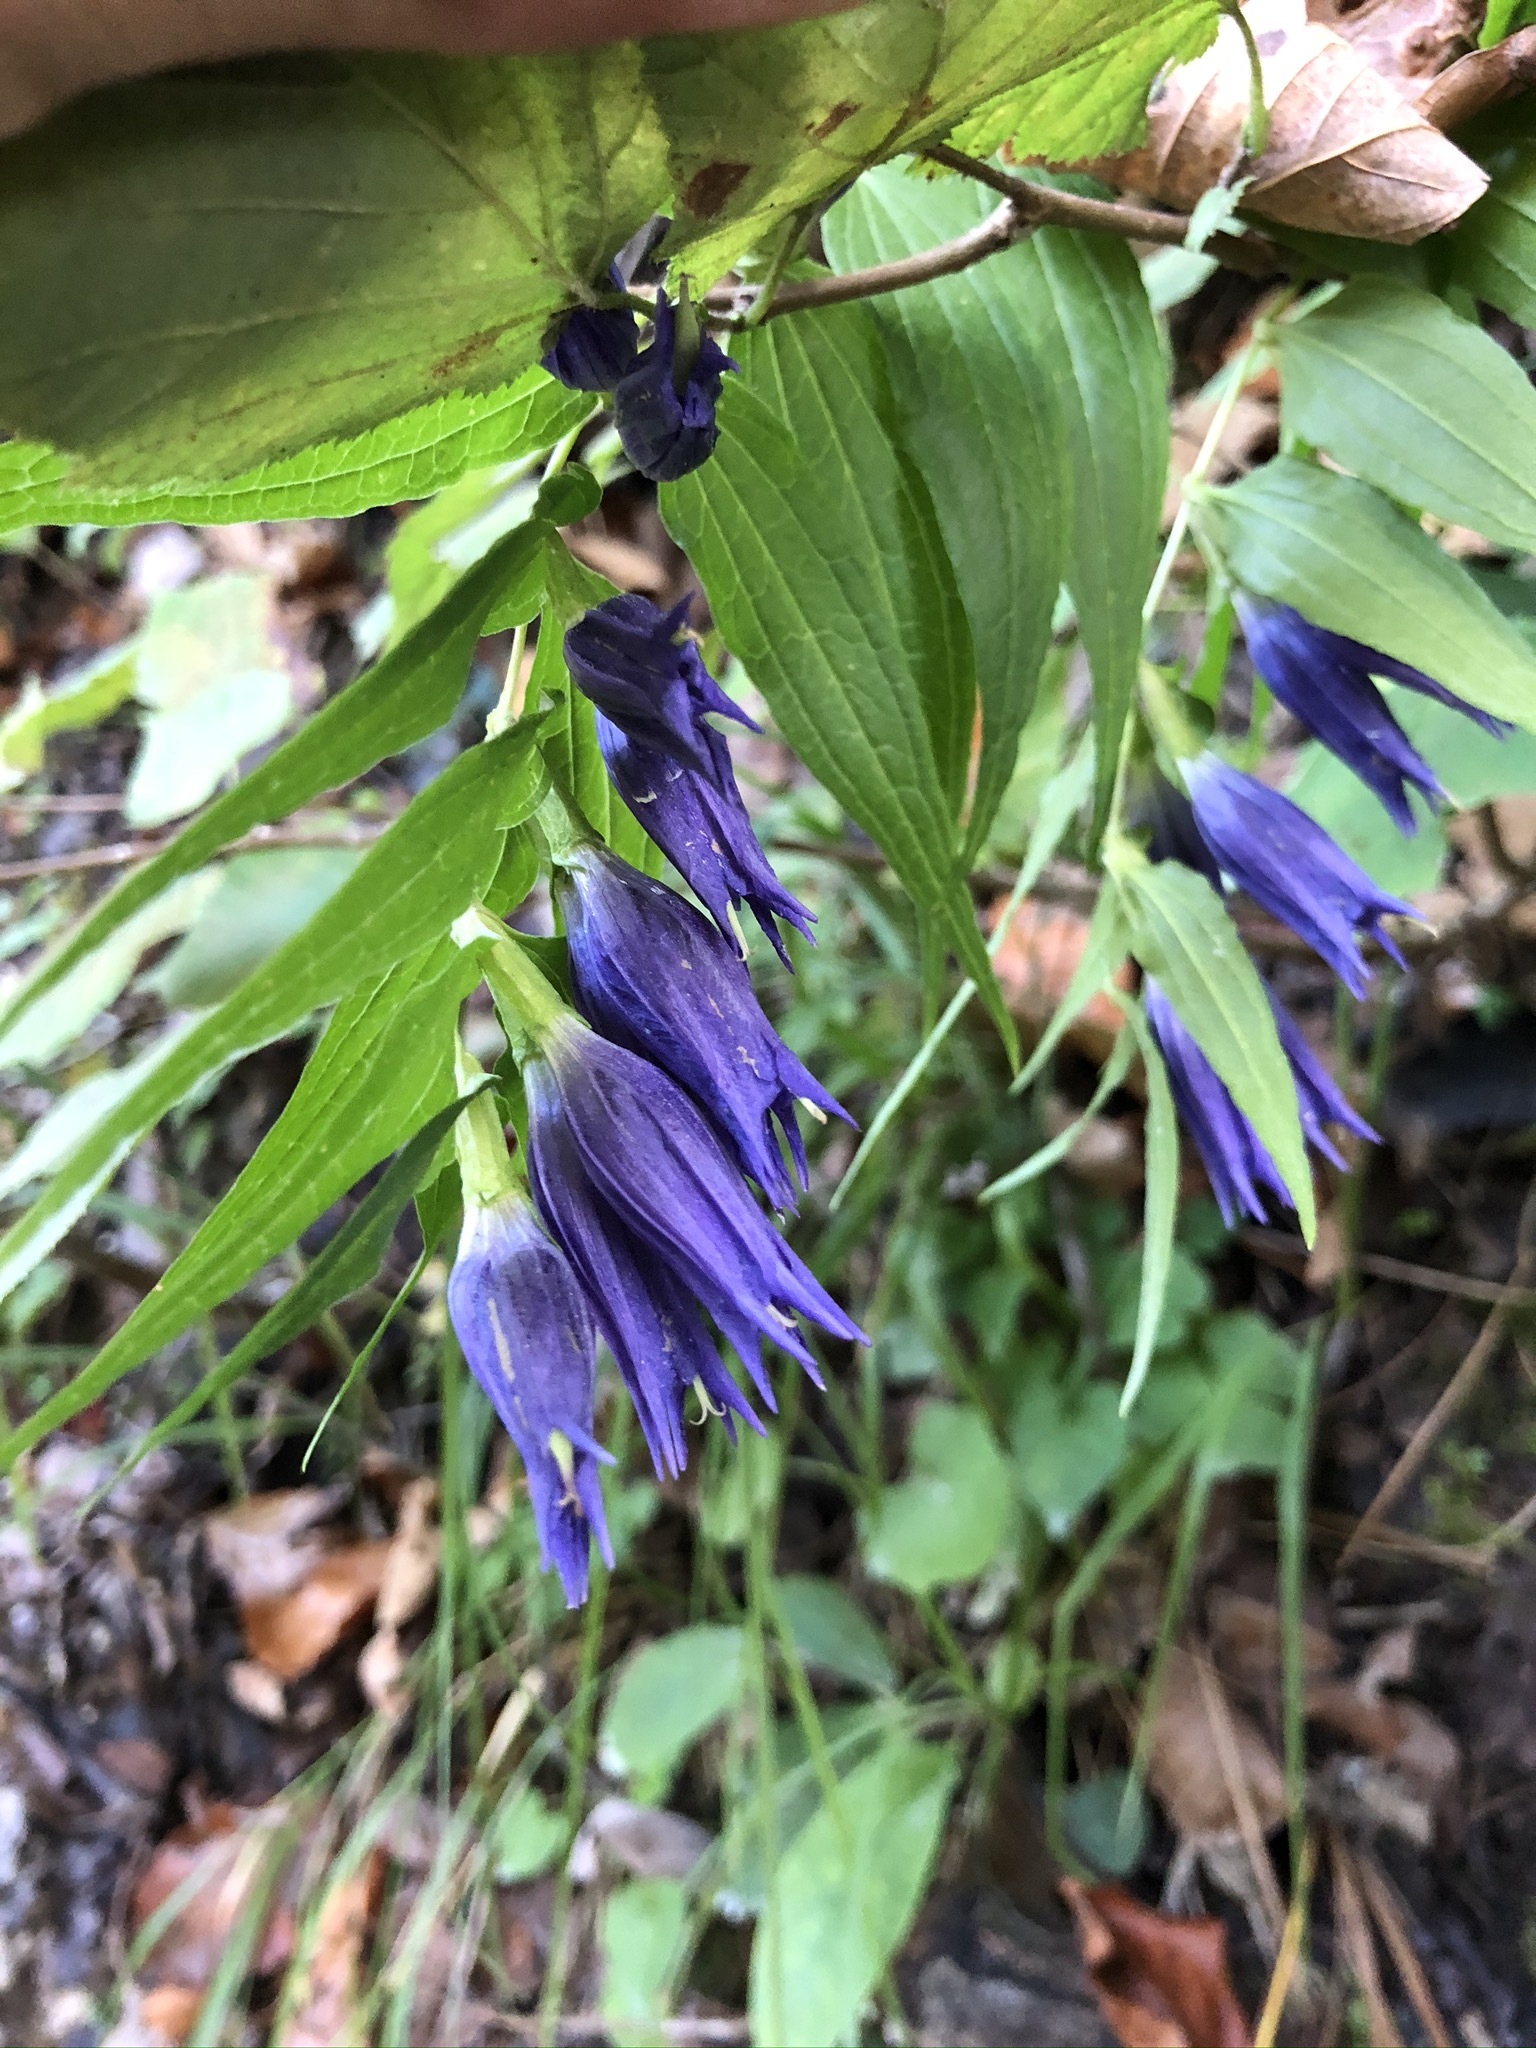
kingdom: Plantae
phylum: Tracheophyta
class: Magnoliopsida
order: Gentianales
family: Gentianaceae
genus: Gentiana
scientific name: Gentiana asclepiadea
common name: Willow gentian
